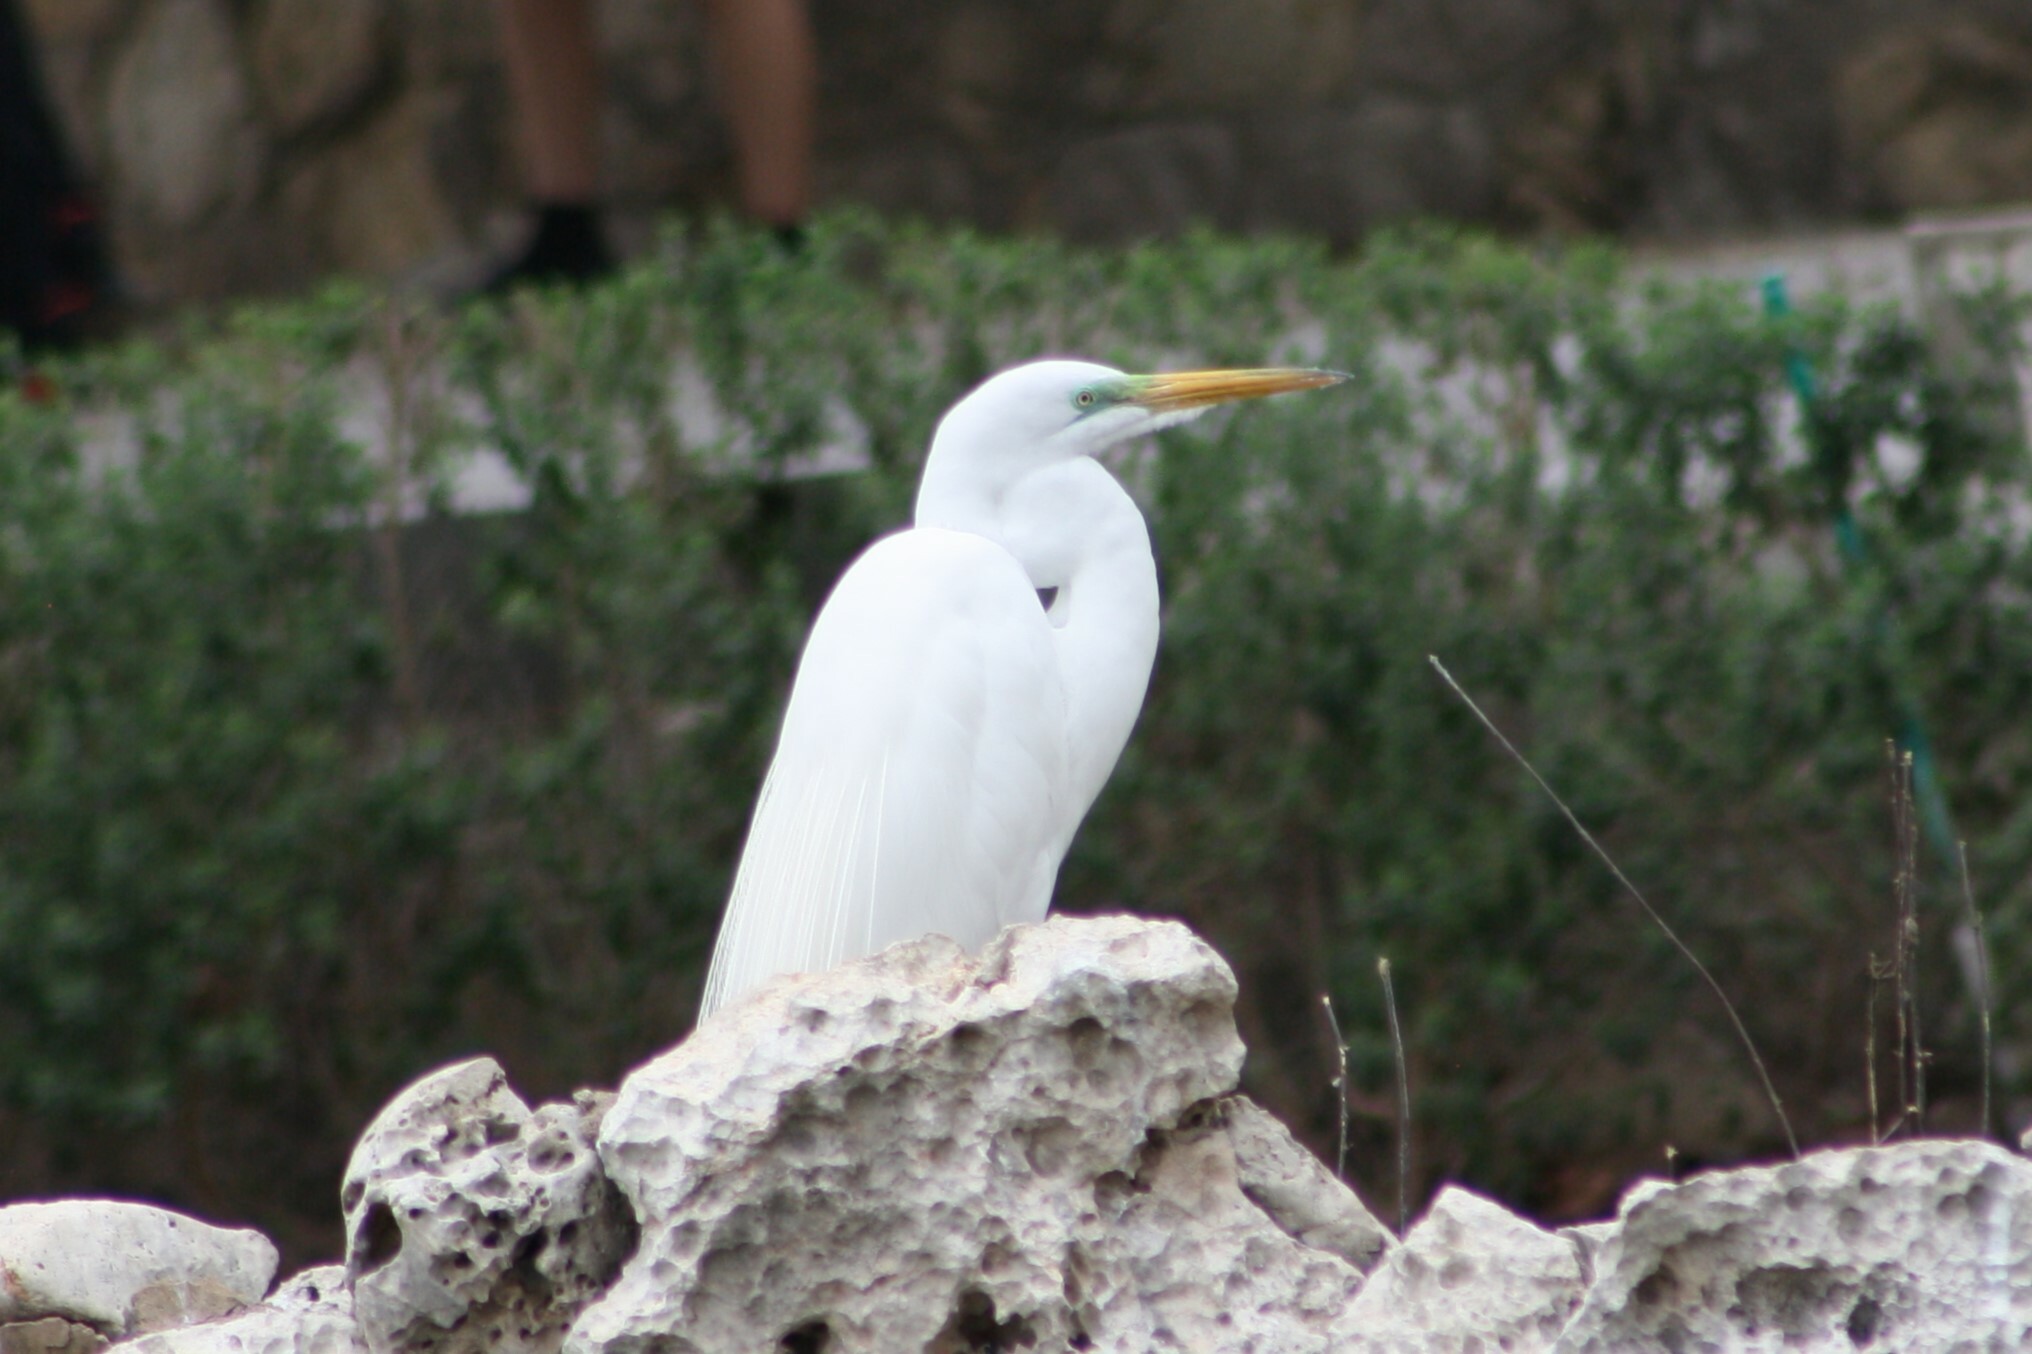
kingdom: Animalia
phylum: Chordata
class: Aves
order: Pelecaniformes
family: Ardeidae
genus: Ardea
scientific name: Ardea alba
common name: Great egret
